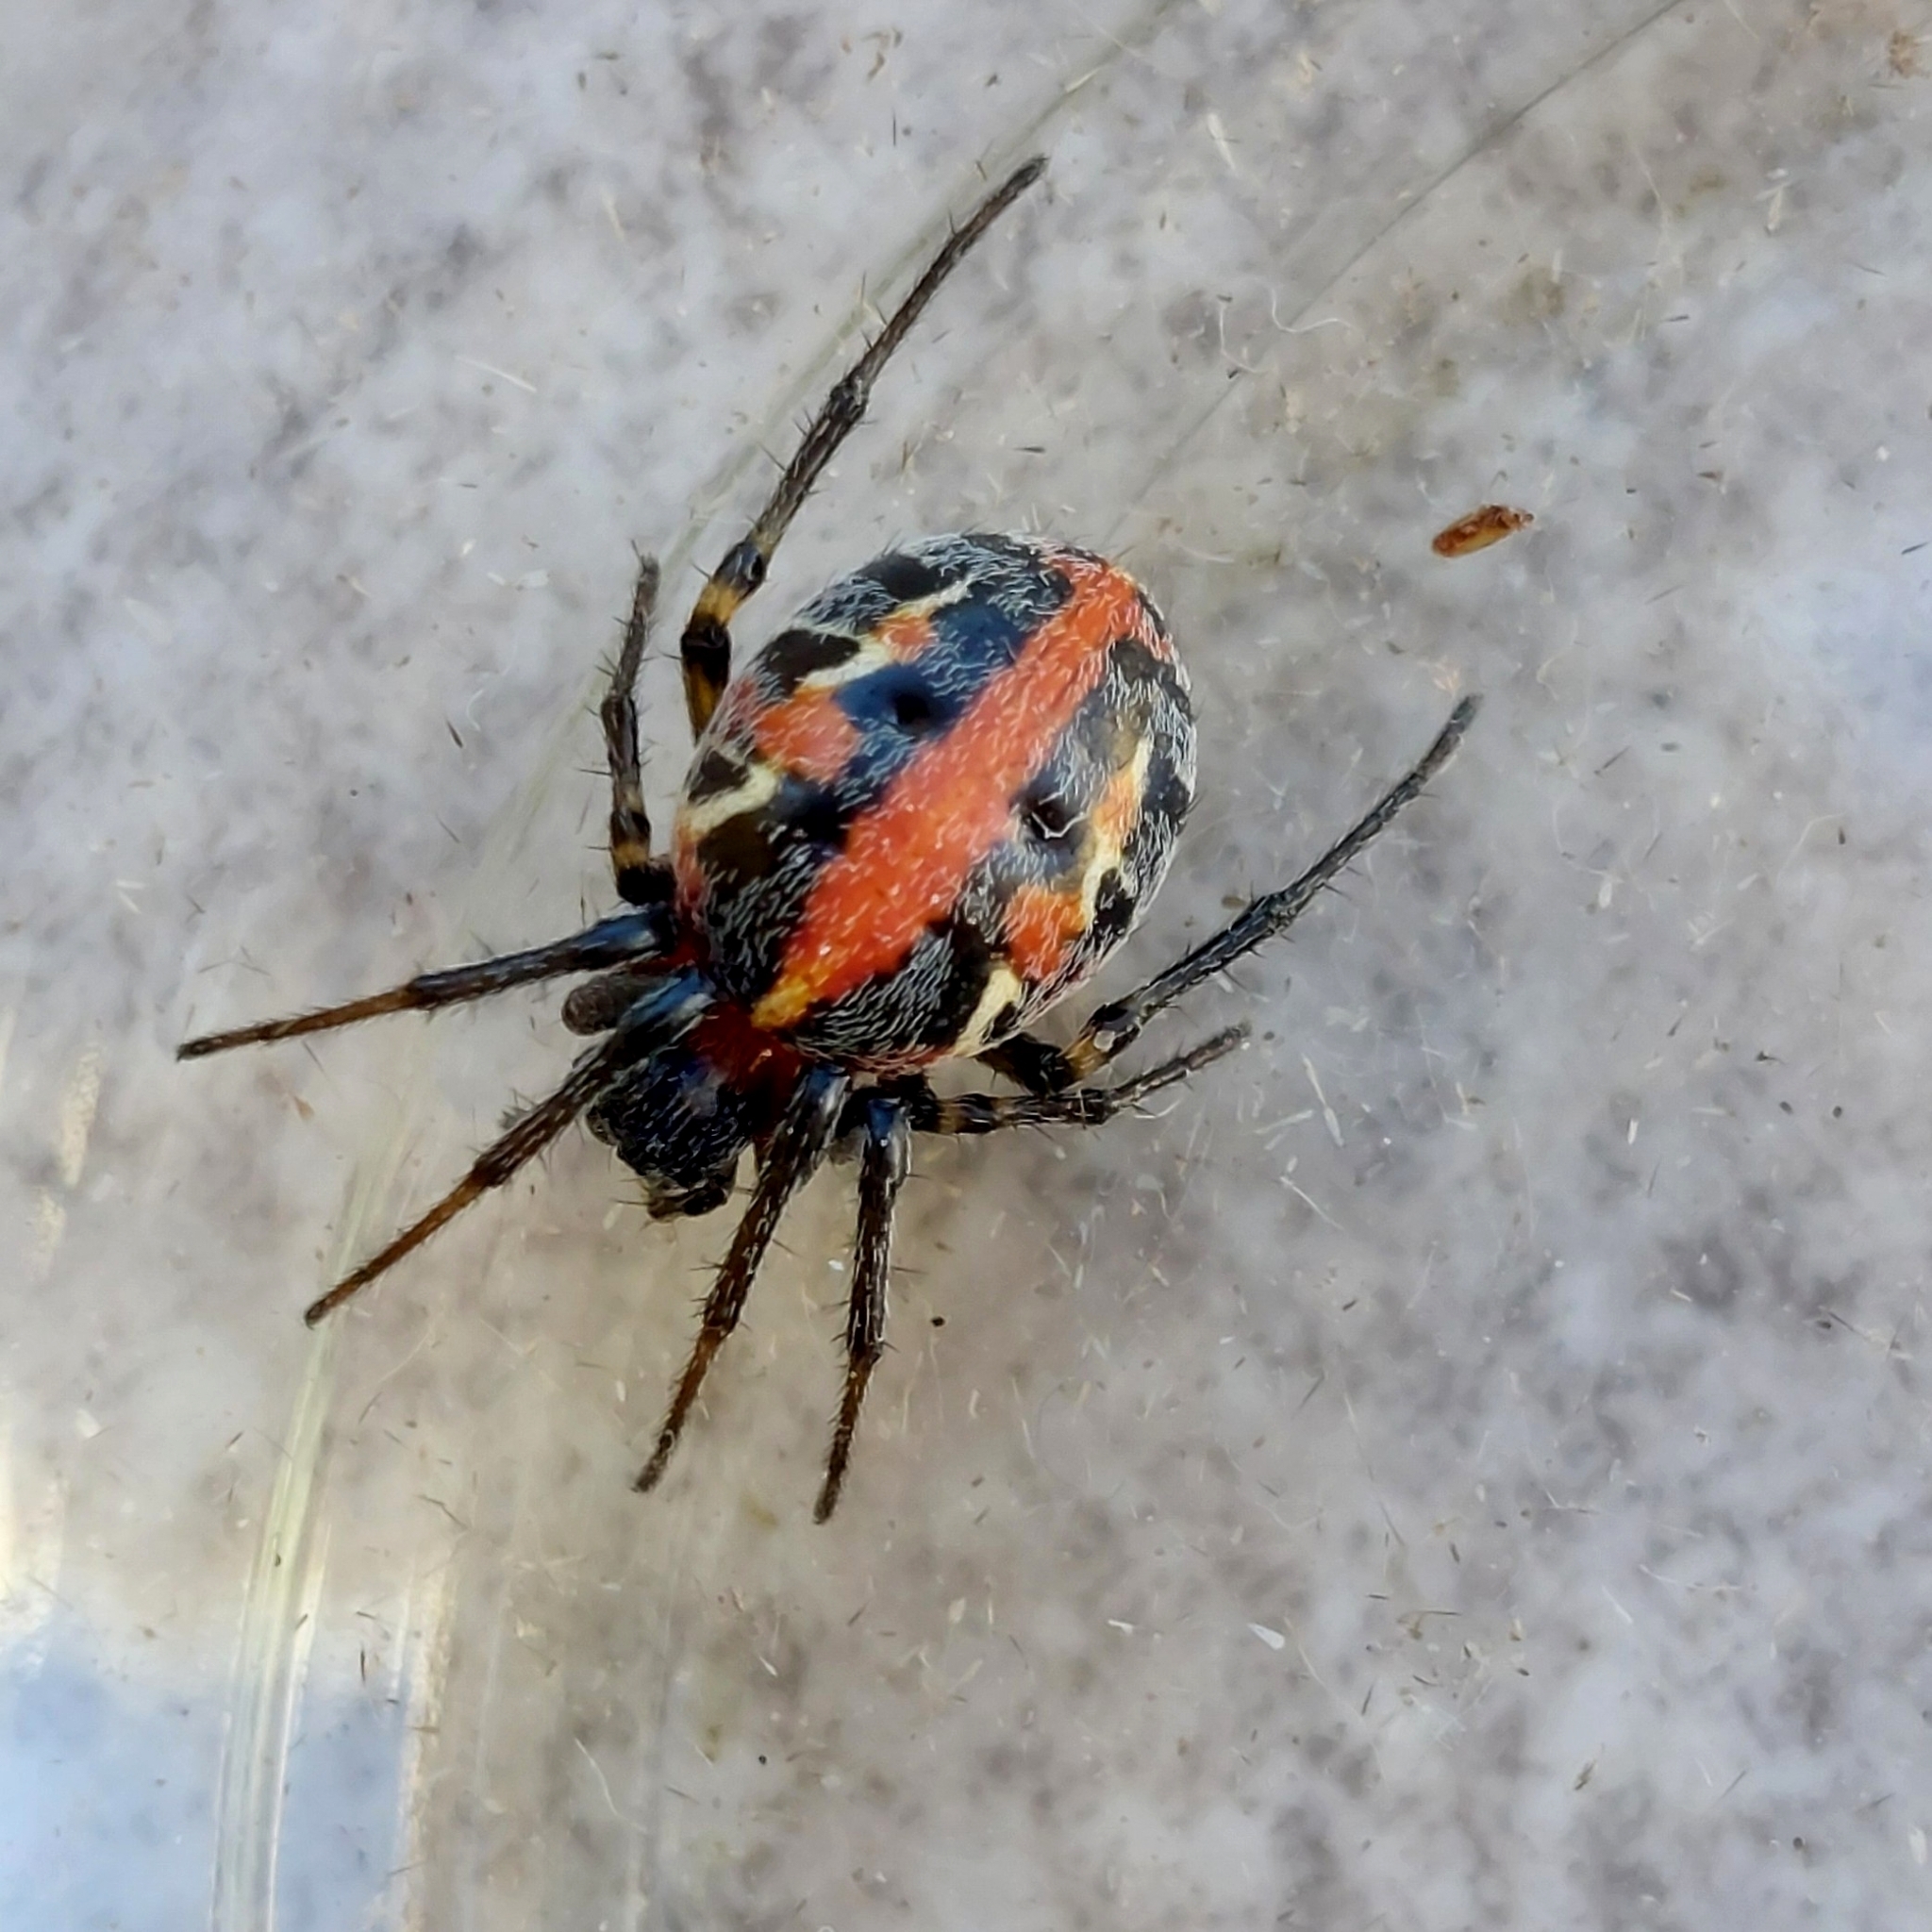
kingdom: Animalia
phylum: Arthropoda
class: Arachnida
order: Araneae
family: Araneidae
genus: Alpaida
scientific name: Alpaida versicolor
